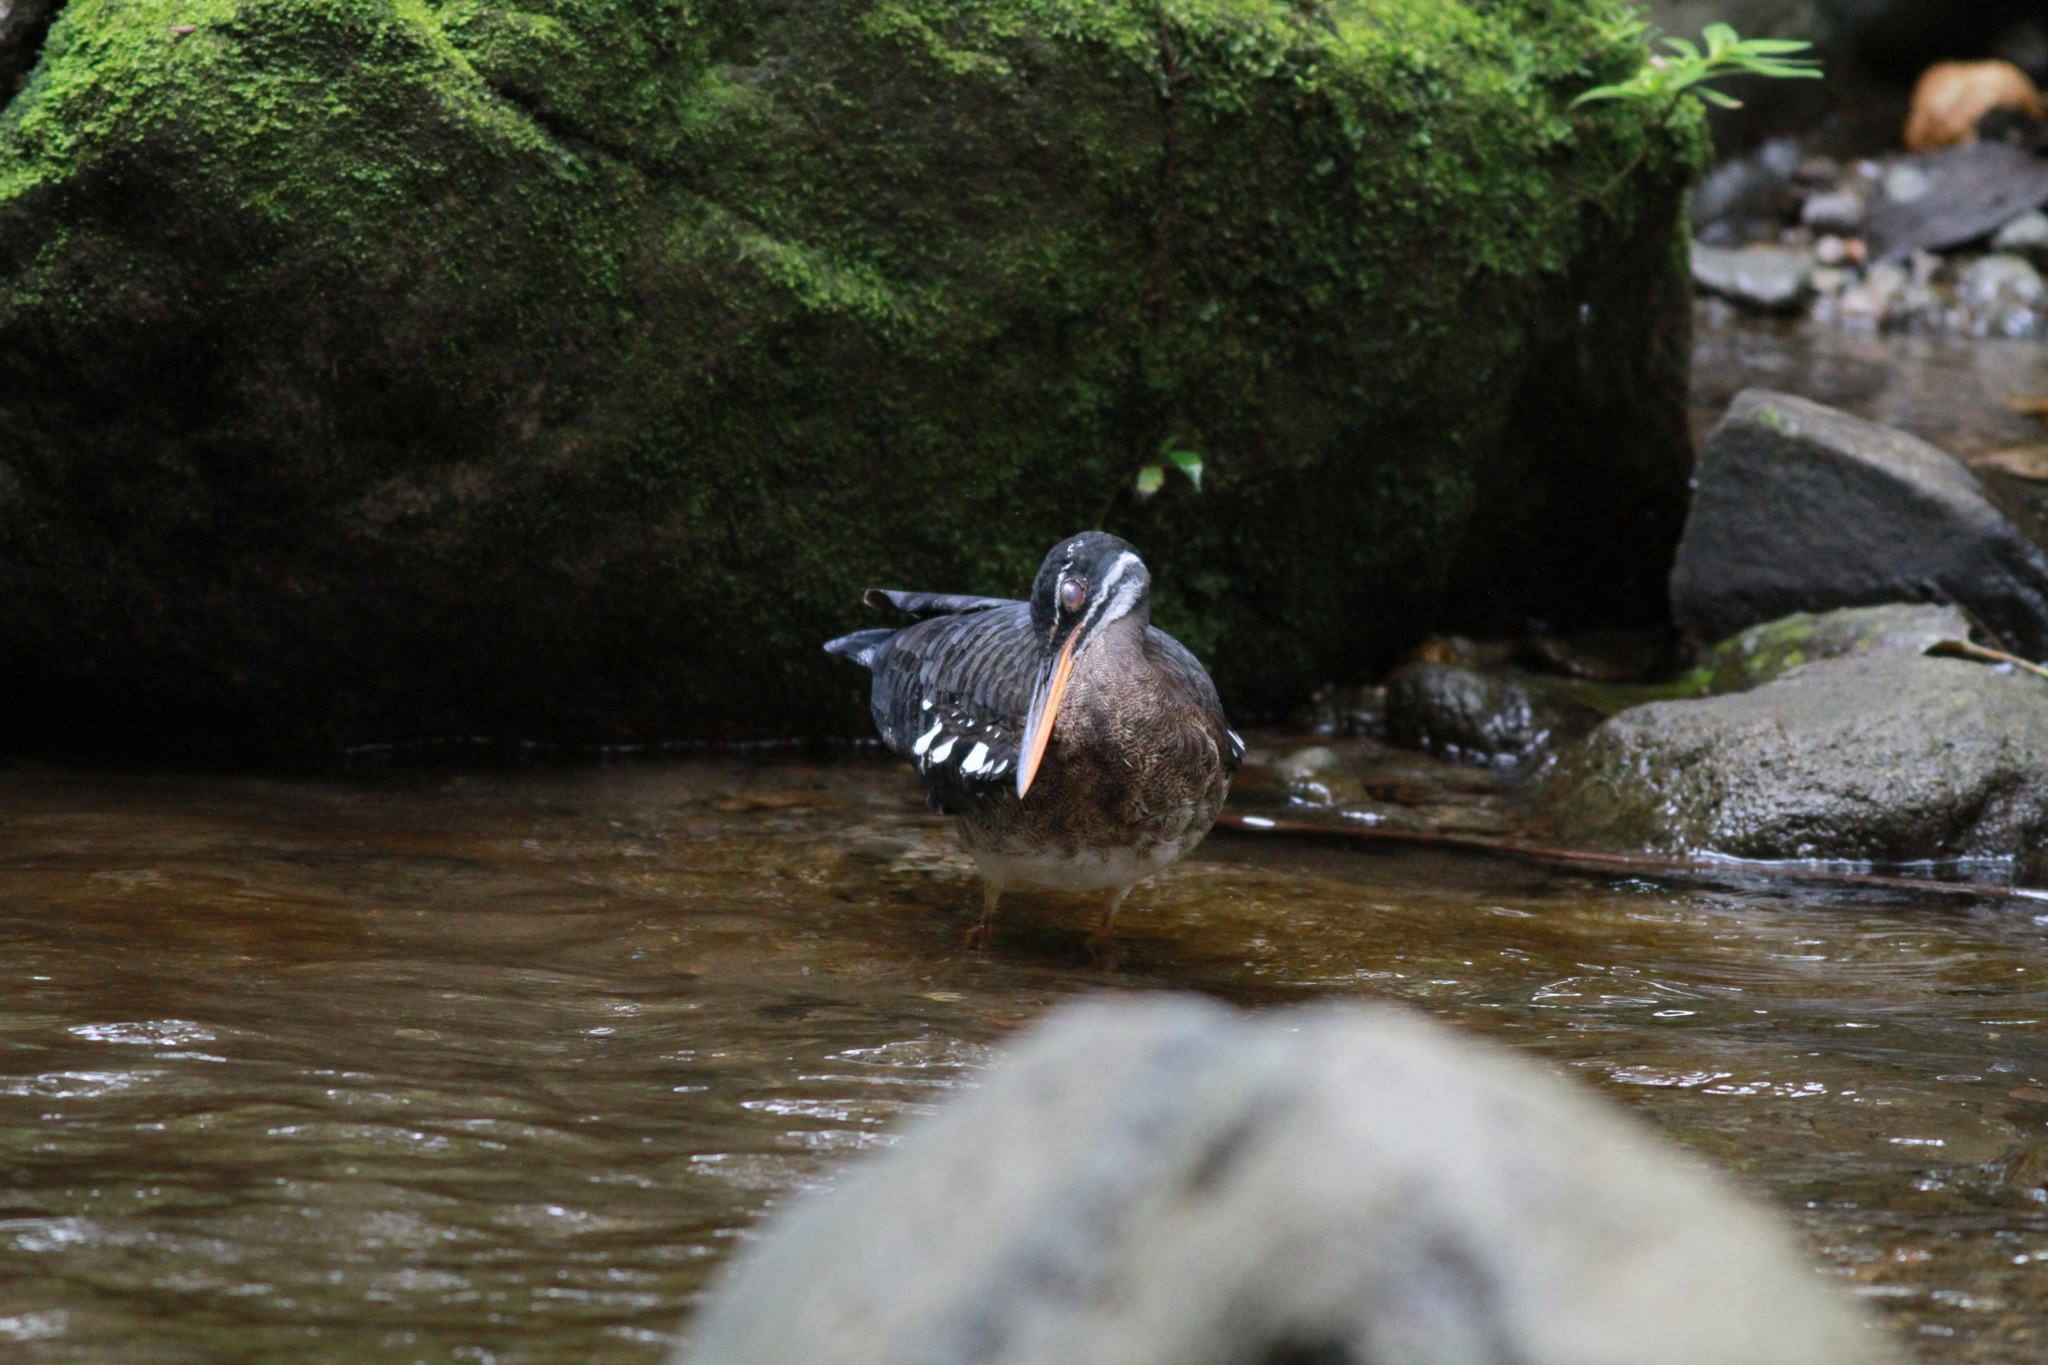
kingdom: Animalia
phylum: Chordata
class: Aves
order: Eurypygiformes
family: Eurypygidae
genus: Eurypyga
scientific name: Eurypyga helias
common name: Sunbittern
